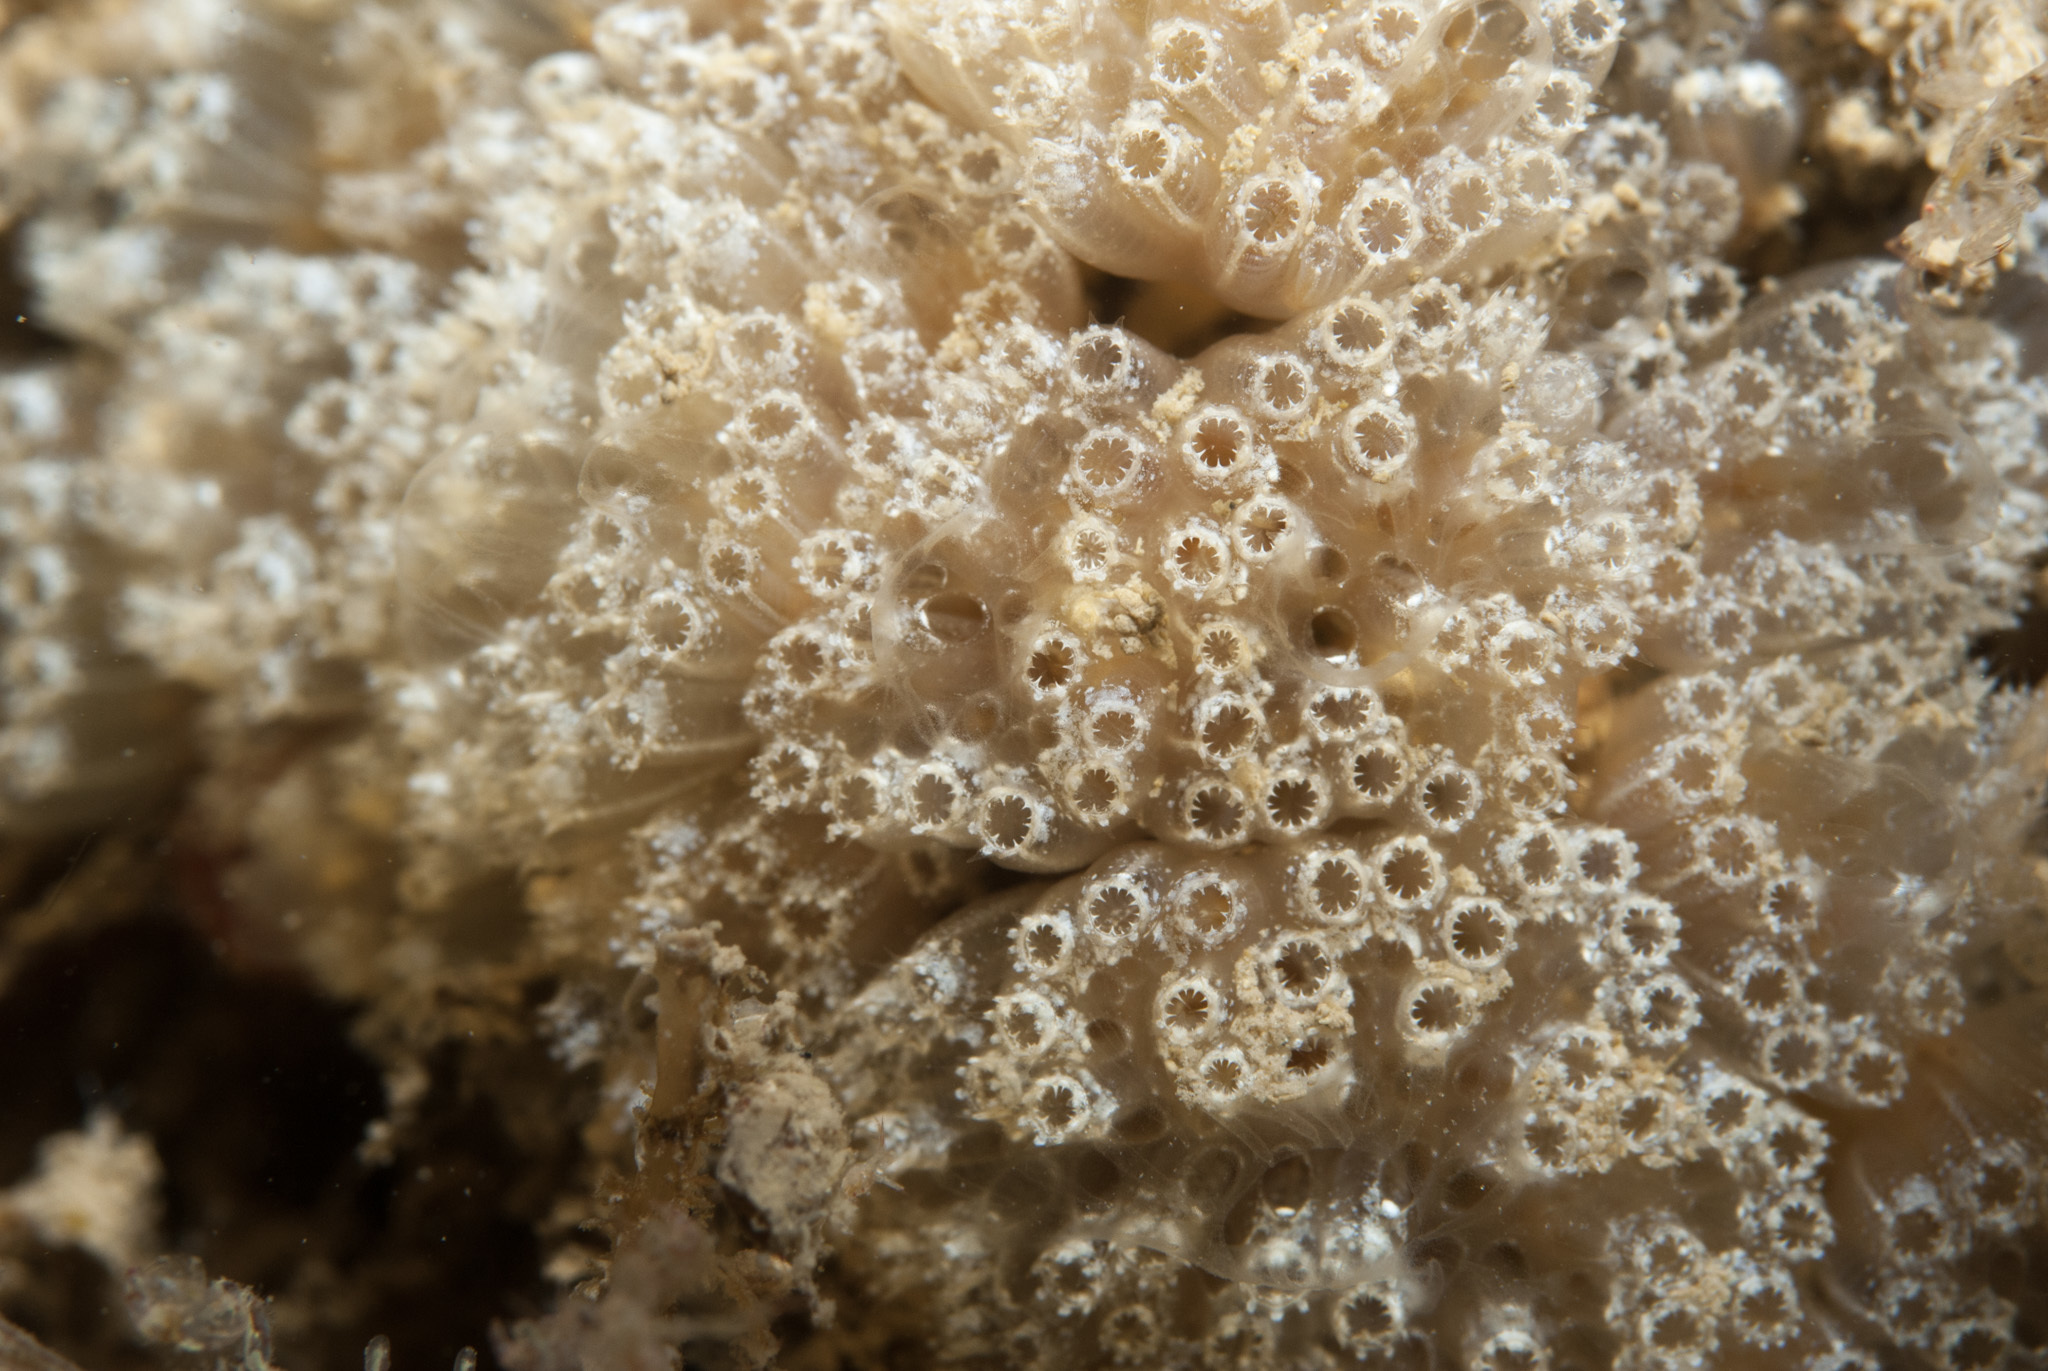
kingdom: Animalia
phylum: Chordata
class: Ascidiacea
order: Aplousobranchia
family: Polyclinidae
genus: Aplidium
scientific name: Aplidium turbinatum
